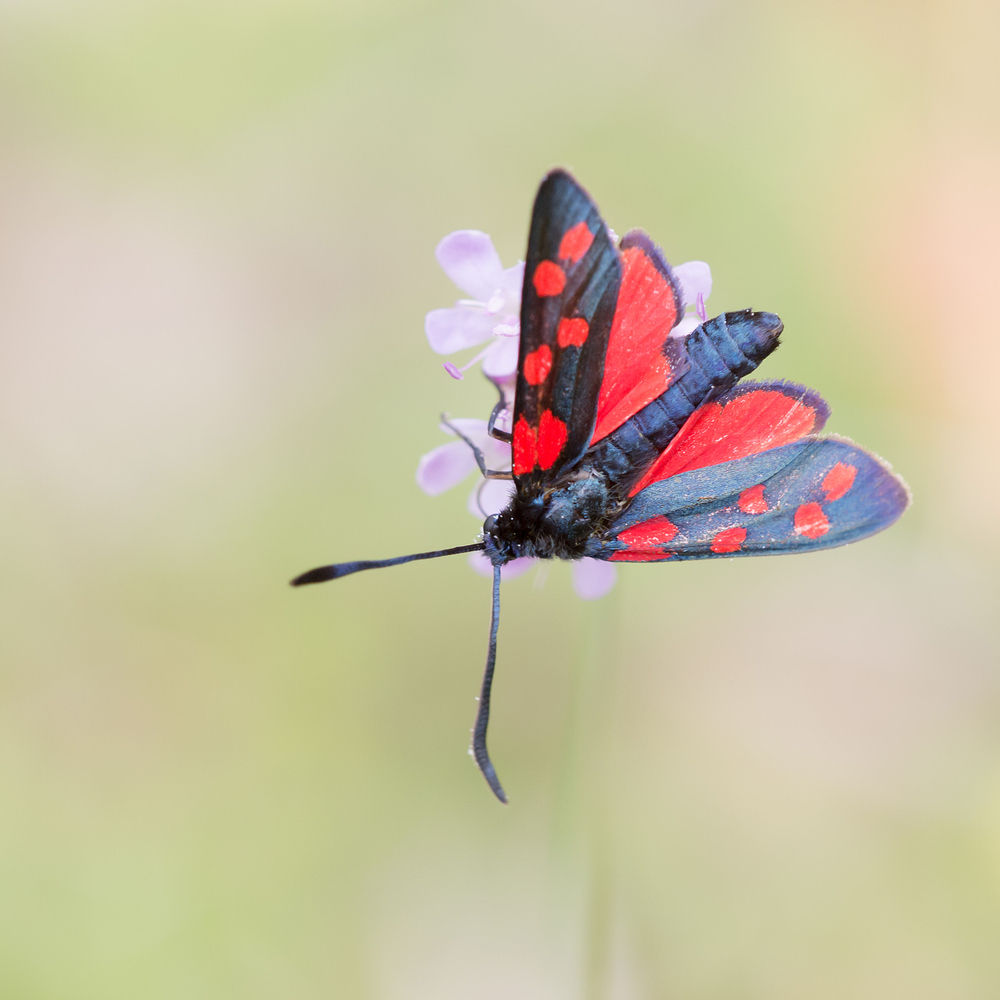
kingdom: Animalia
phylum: Arthropoda
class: Insecta
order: Lepidoptera
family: Zygaenidae
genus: Zygaena
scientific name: Zygaena transalpina
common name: Southern six spot burnet
